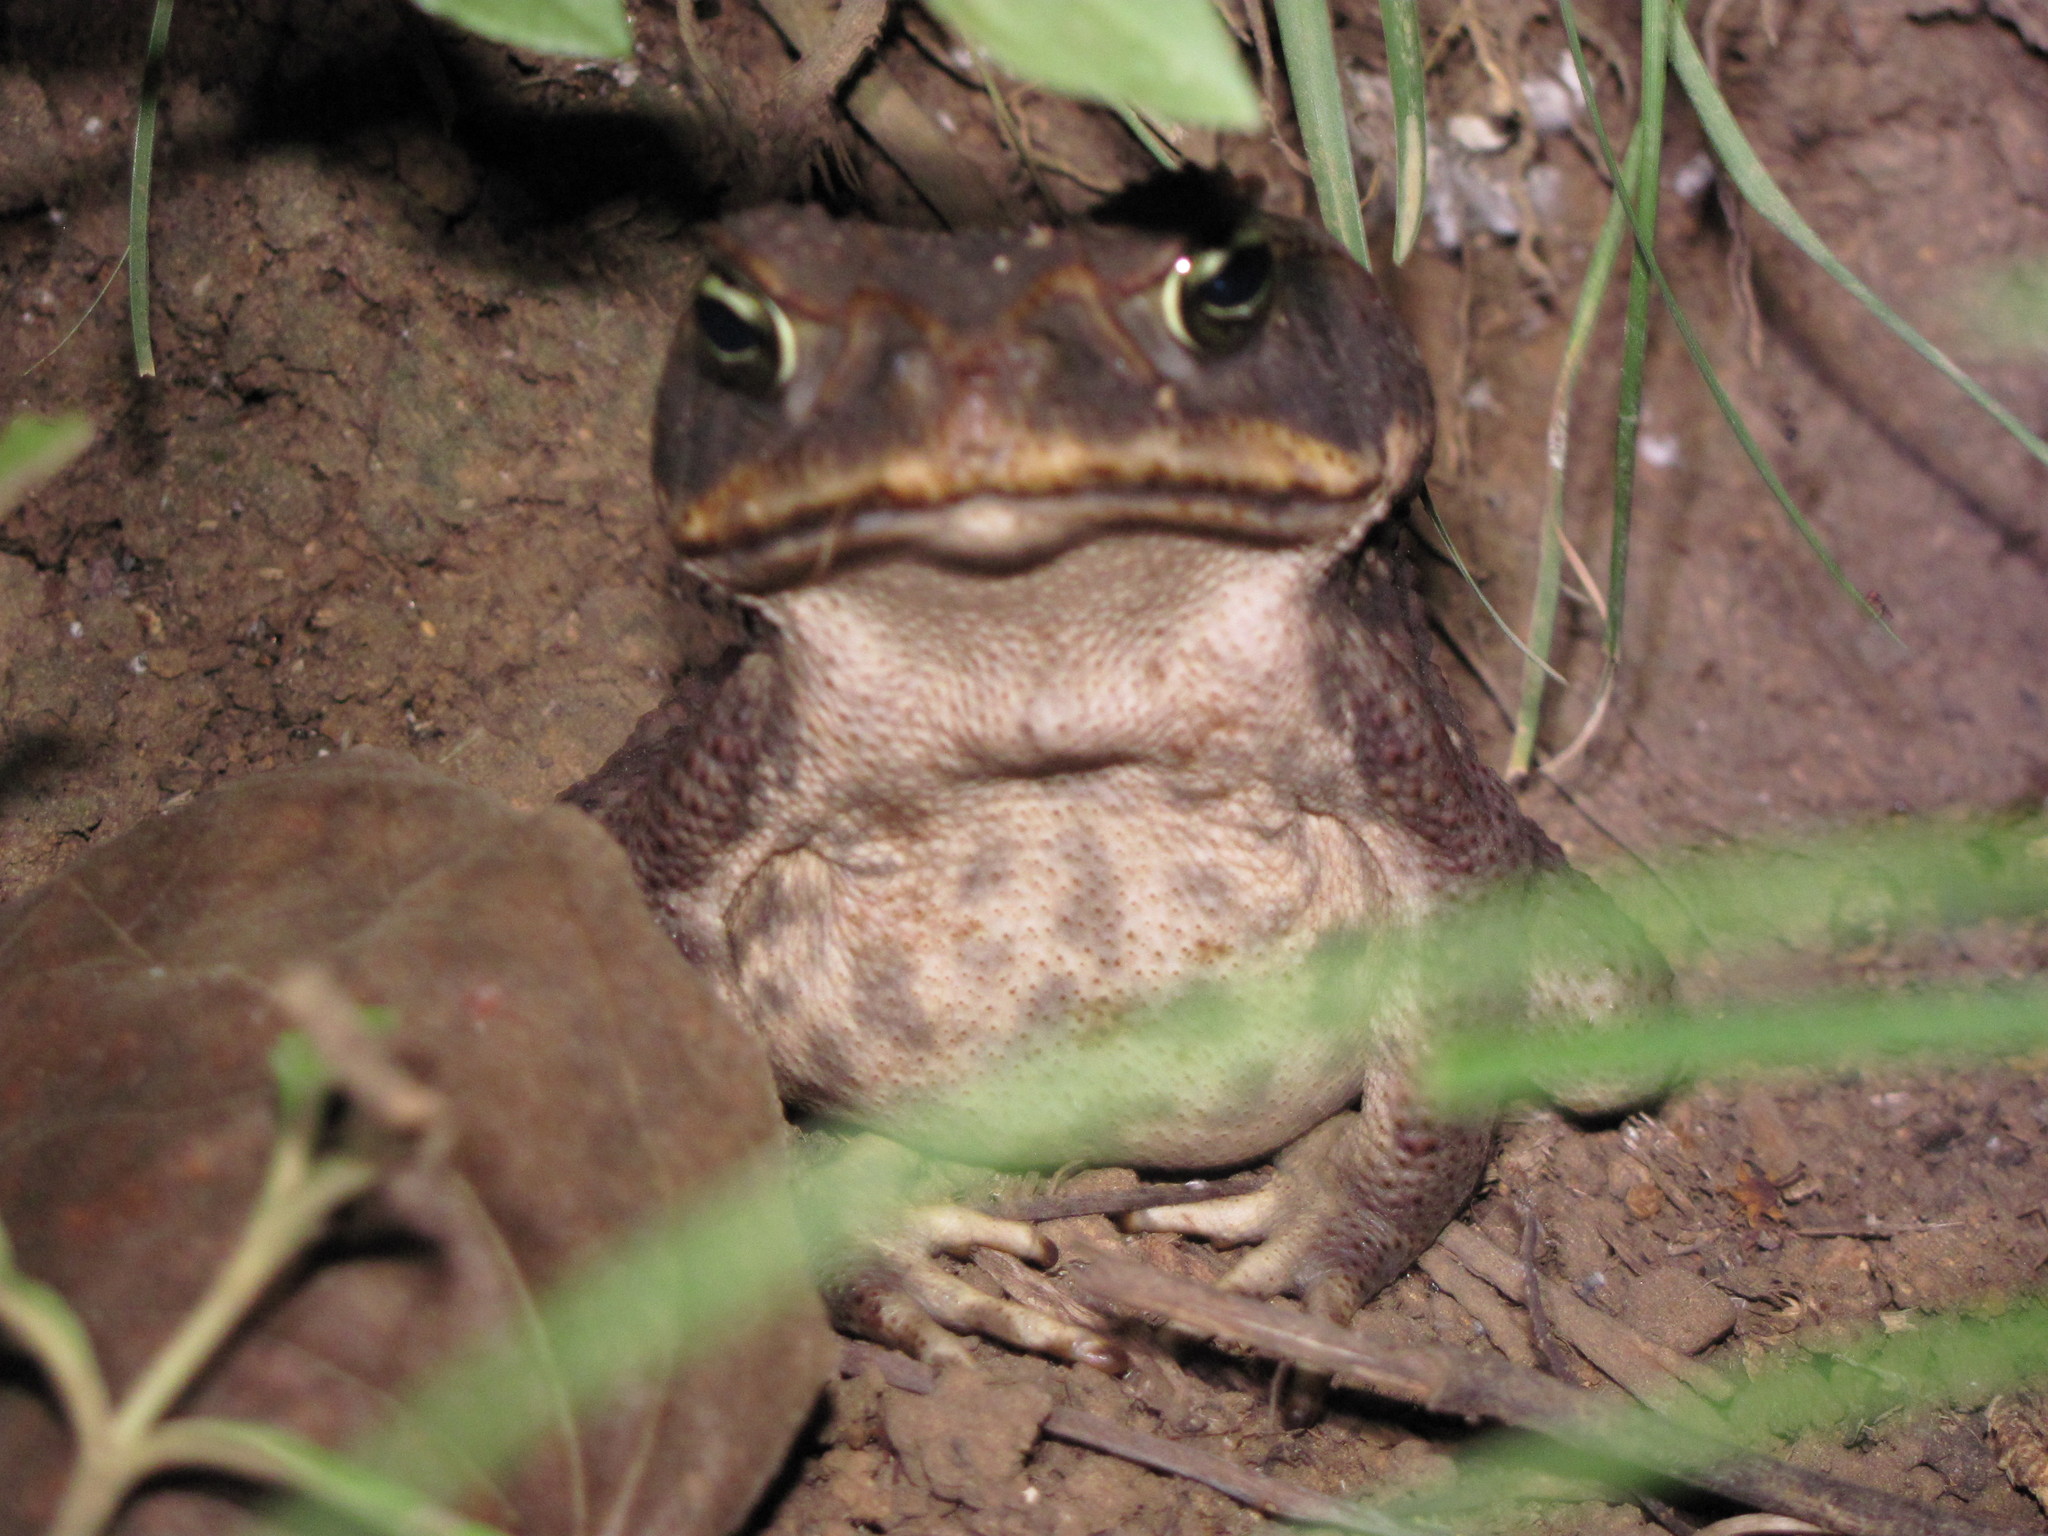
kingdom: Animalia
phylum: Chordata
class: Amphibia
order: Anura
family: Bufonidae
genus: Rhinella
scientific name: Rhinella horribilis
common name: Mesoamerican cane toad
